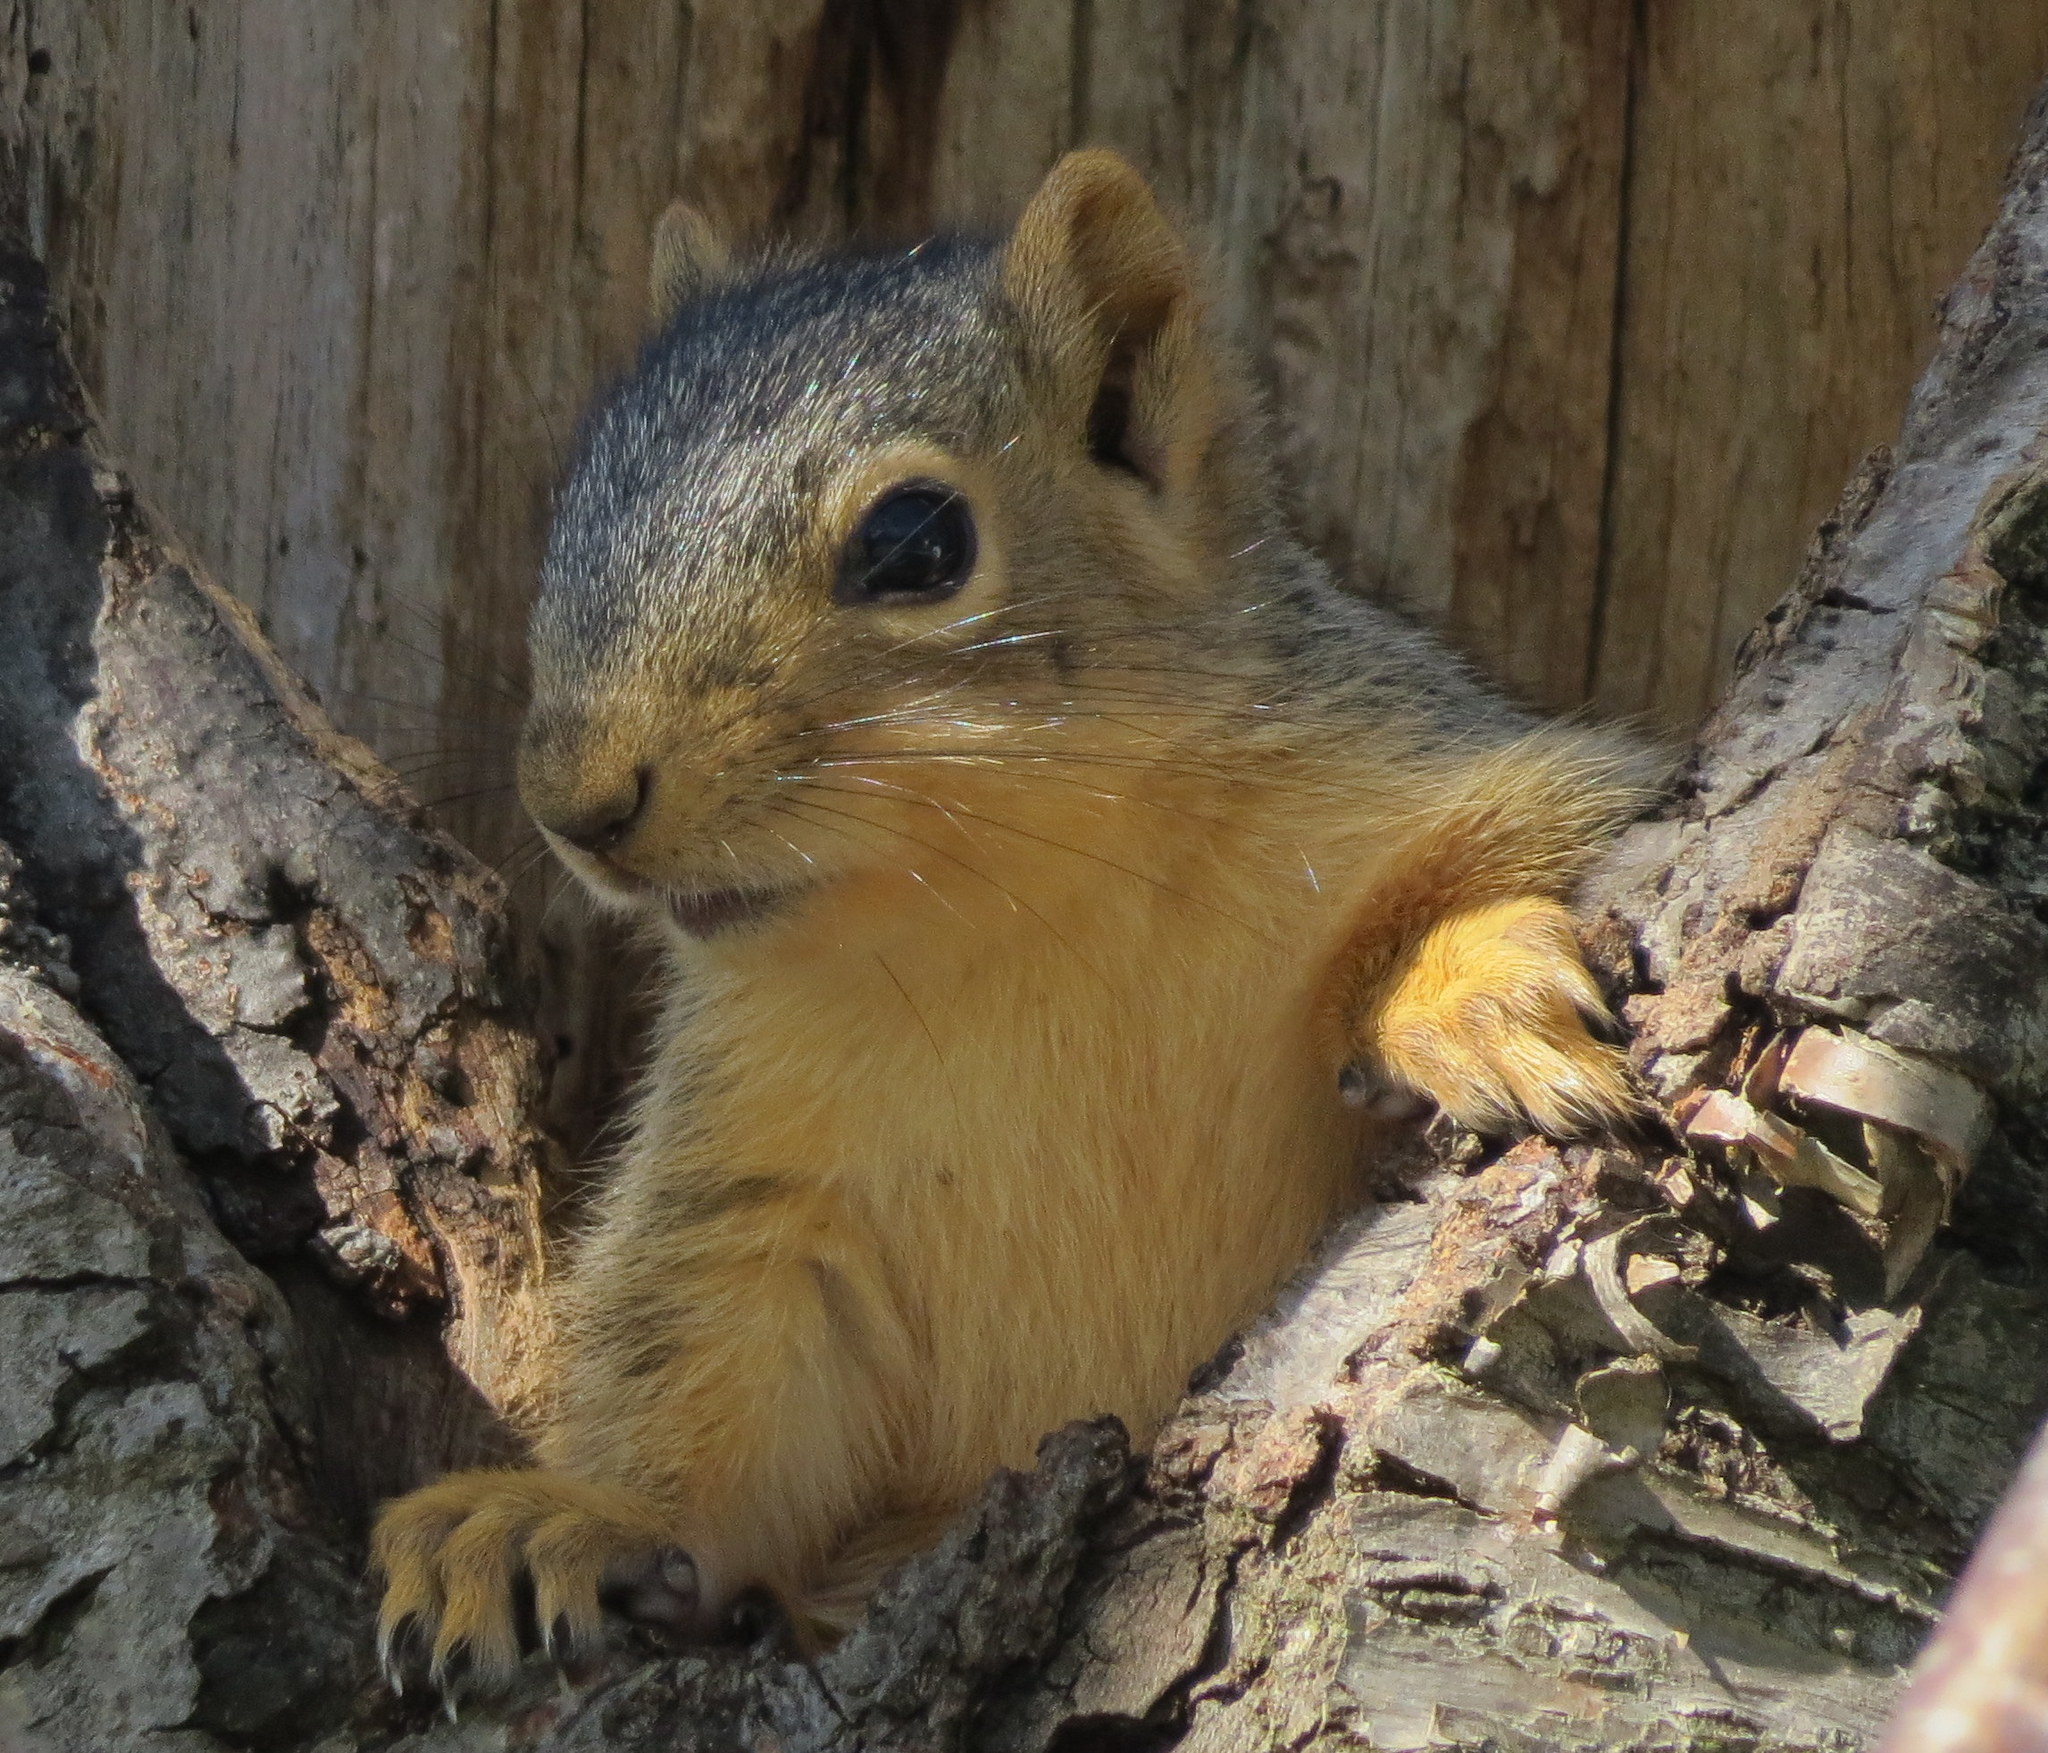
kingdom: Animalia
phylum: Chordata
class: Mammalia
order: Rodentia
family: Sciuridae
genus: Sciurus
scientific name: Sciurus niger
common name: Fox squirrel
